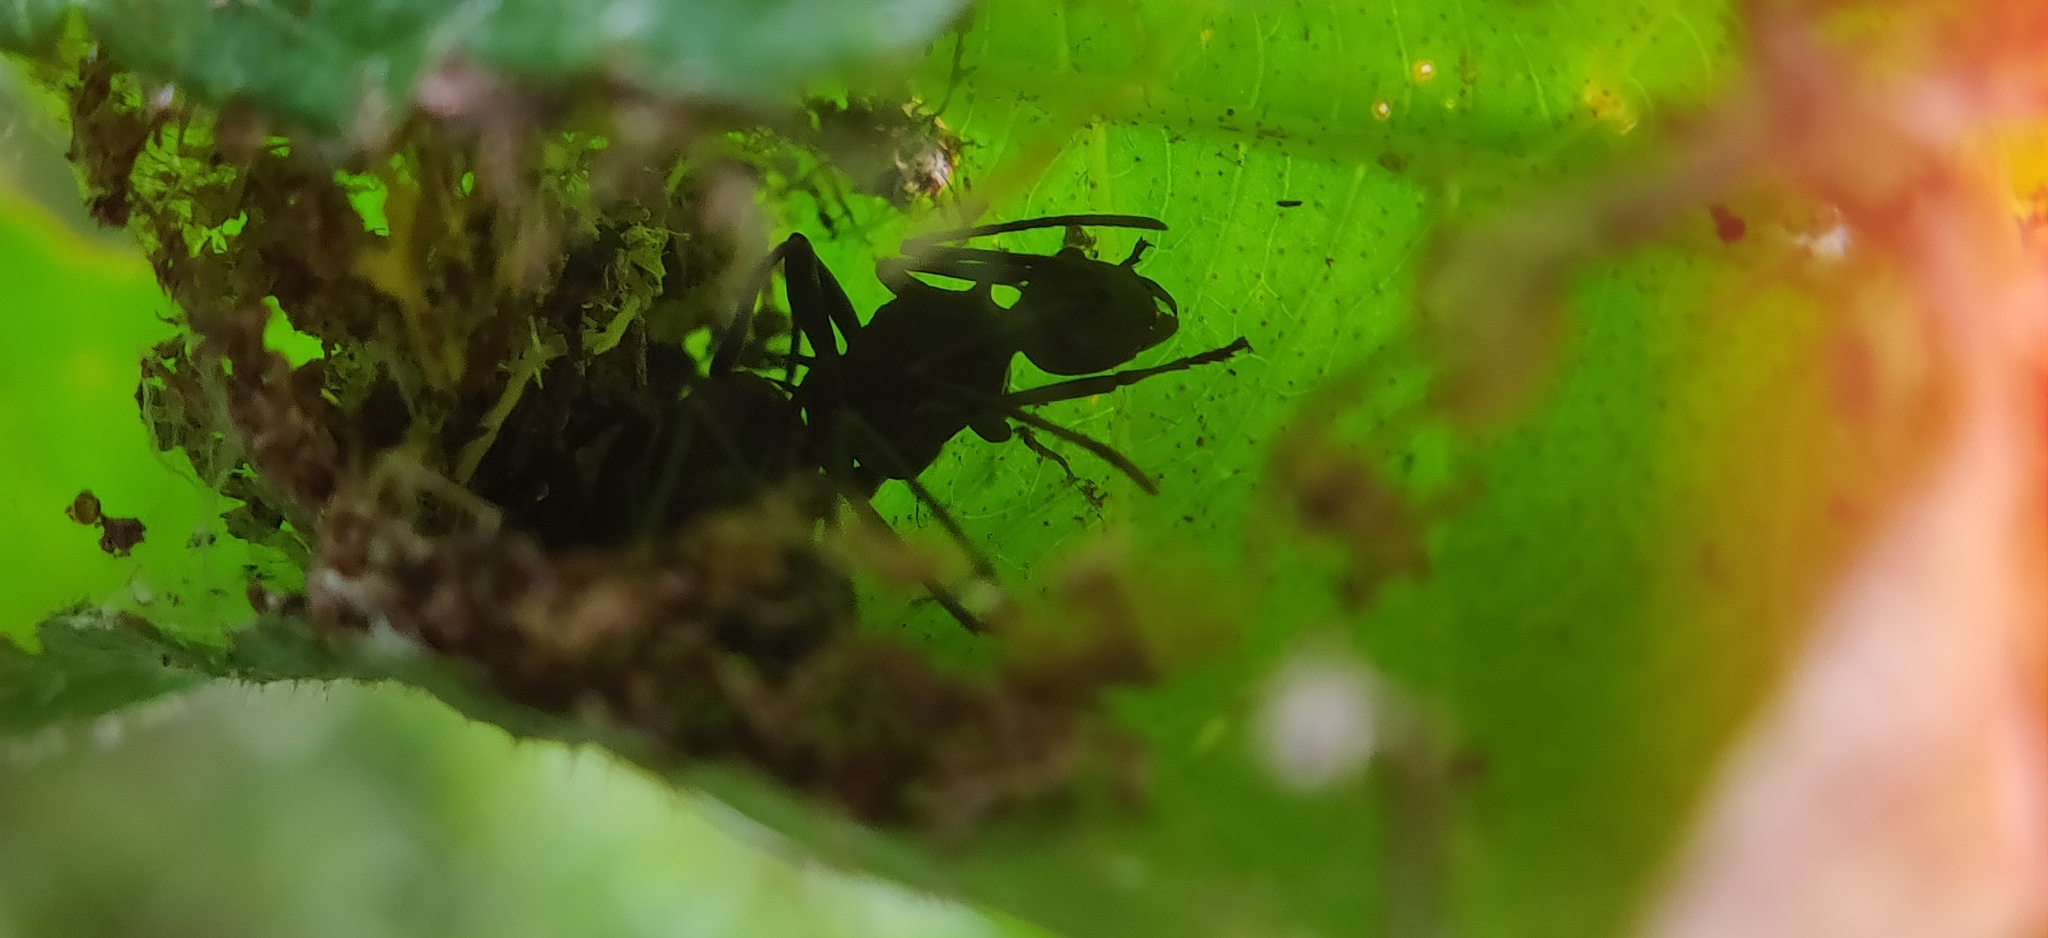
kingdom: Animalia
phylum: Arthropoda
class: Insecta
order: Hymenoptera
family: Formicidae
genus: Polyrhachis
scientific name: Polyrhachis armata
